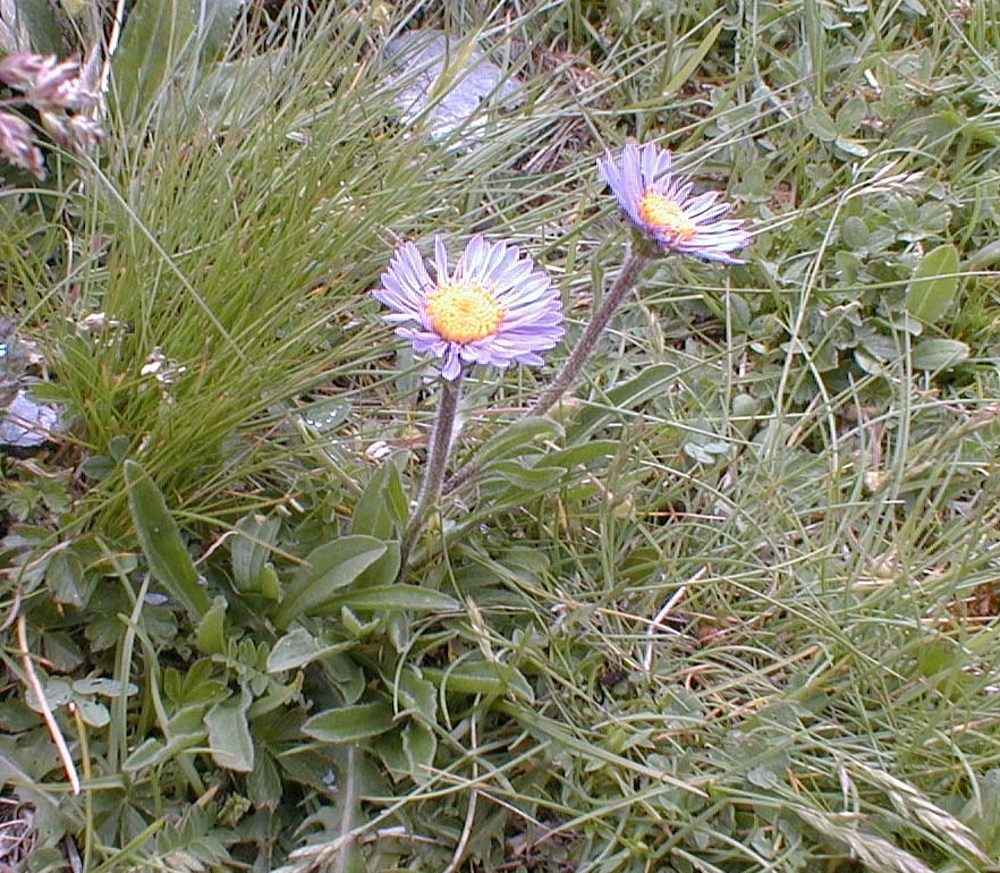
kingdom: Plantae
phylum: Tracheophyta
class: Magnoliopsida
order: Asterales
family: Asteraceae
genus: Aster
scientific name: Aster alpinus
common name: Alpine aster
